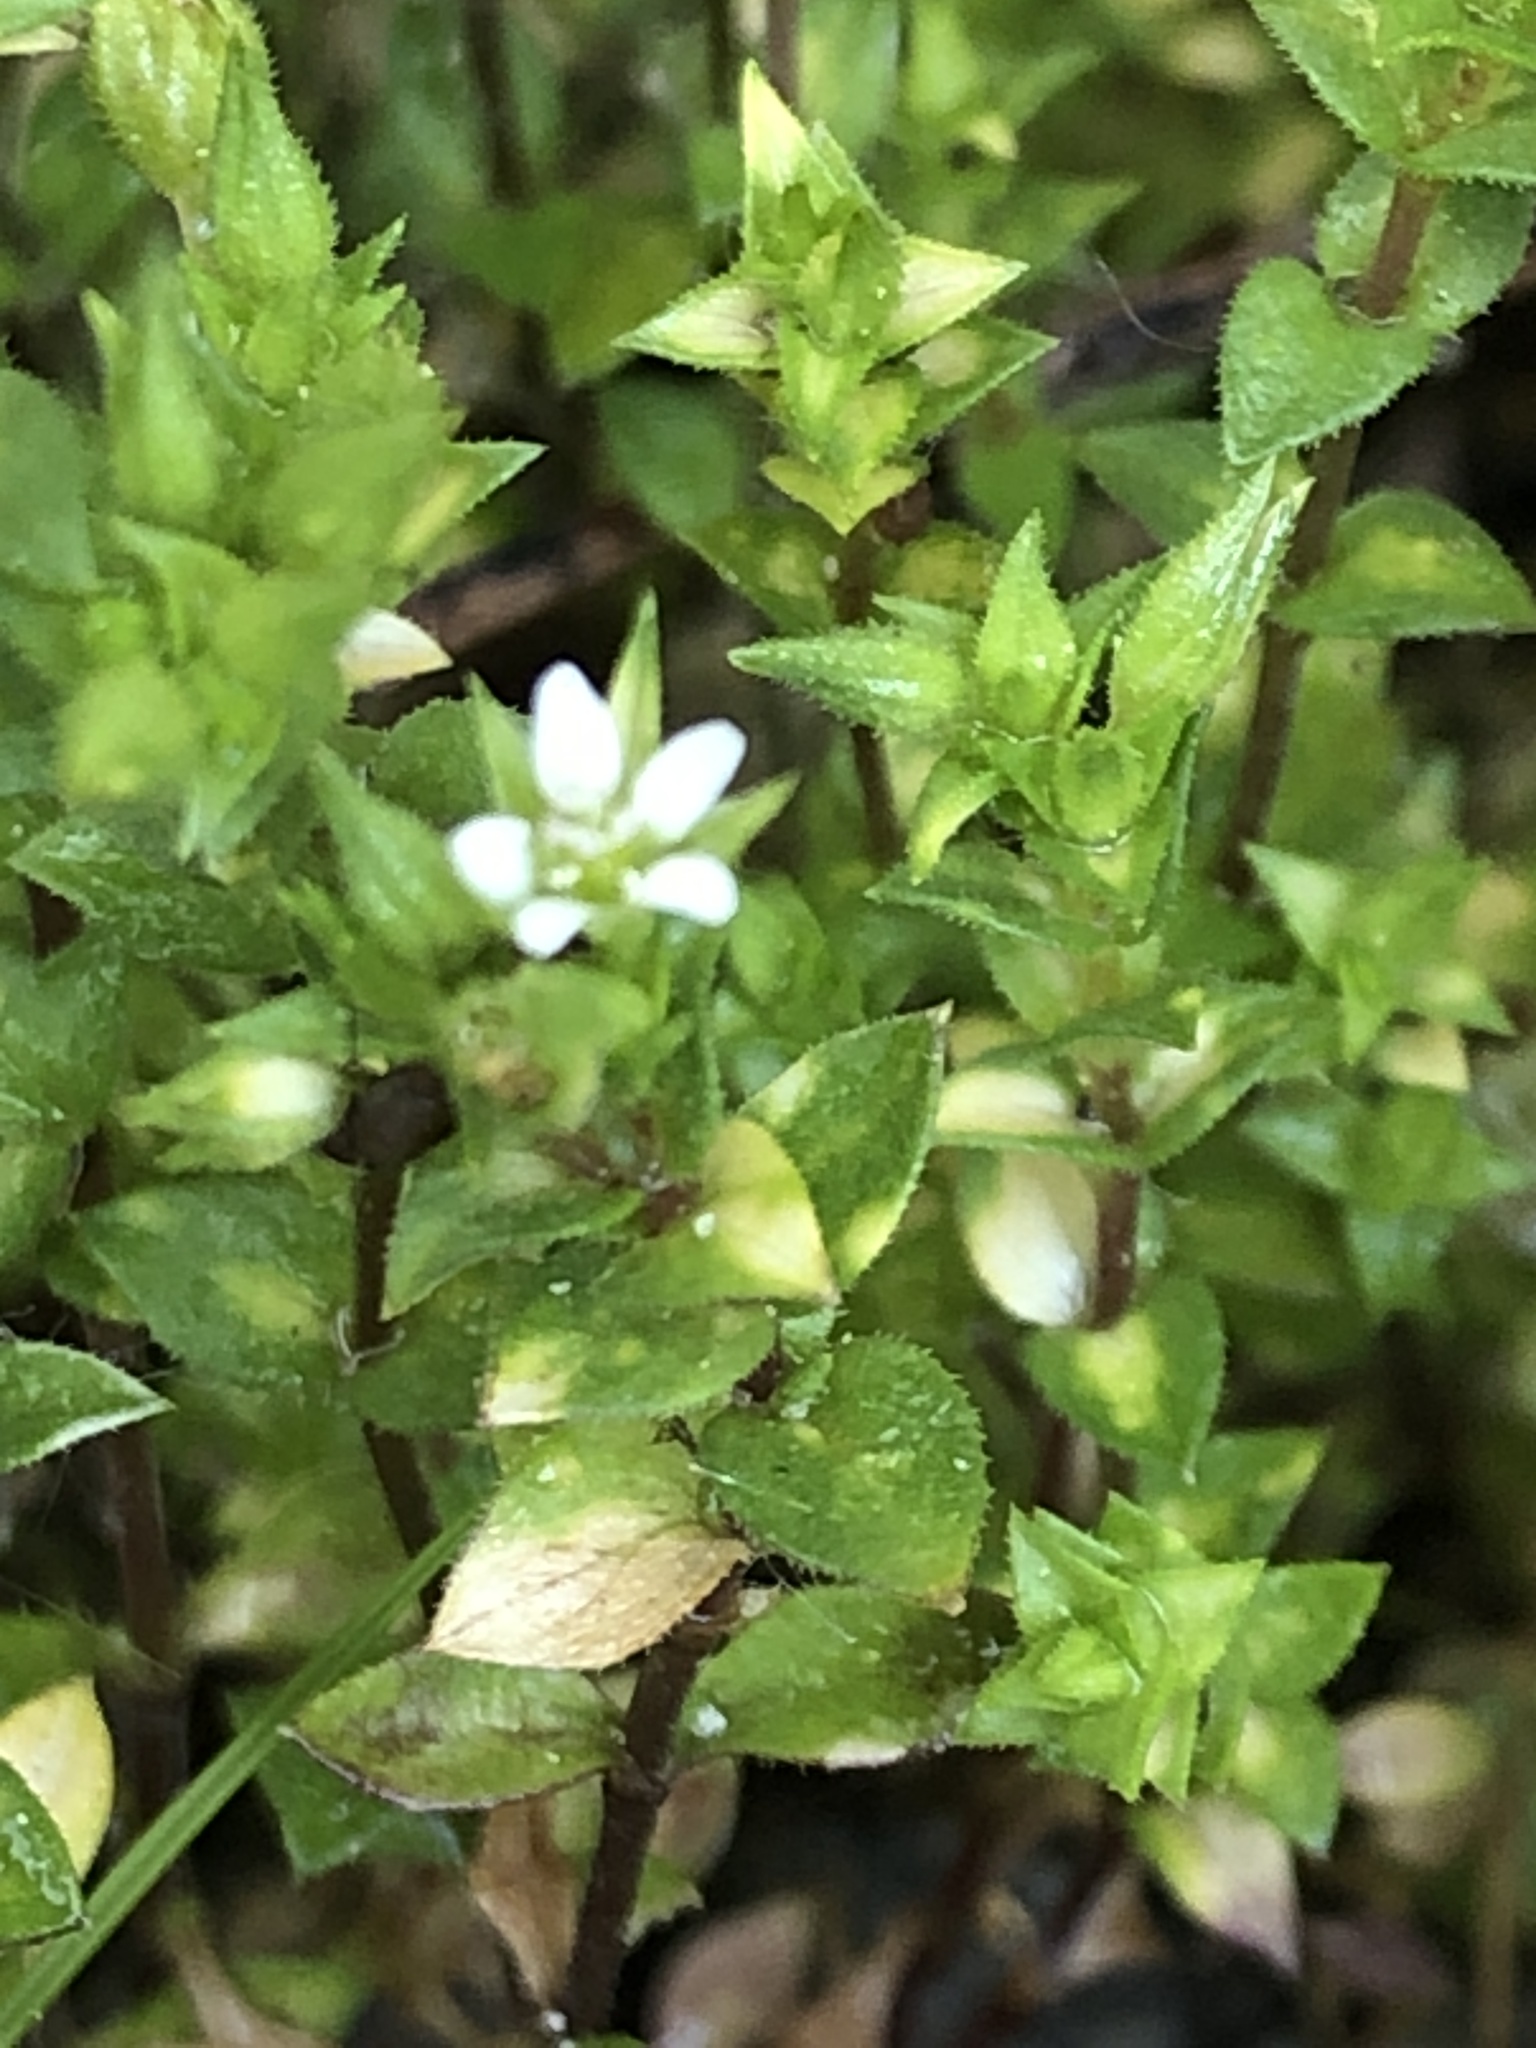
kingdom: Plantae
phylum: Tracheophyta
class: Magnoliopsida
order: Caryophyllales
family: Caryophyllaceae
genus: Arenaria
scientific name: Arenaria serpyllifolia
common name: Thyme-leaved sandwort
